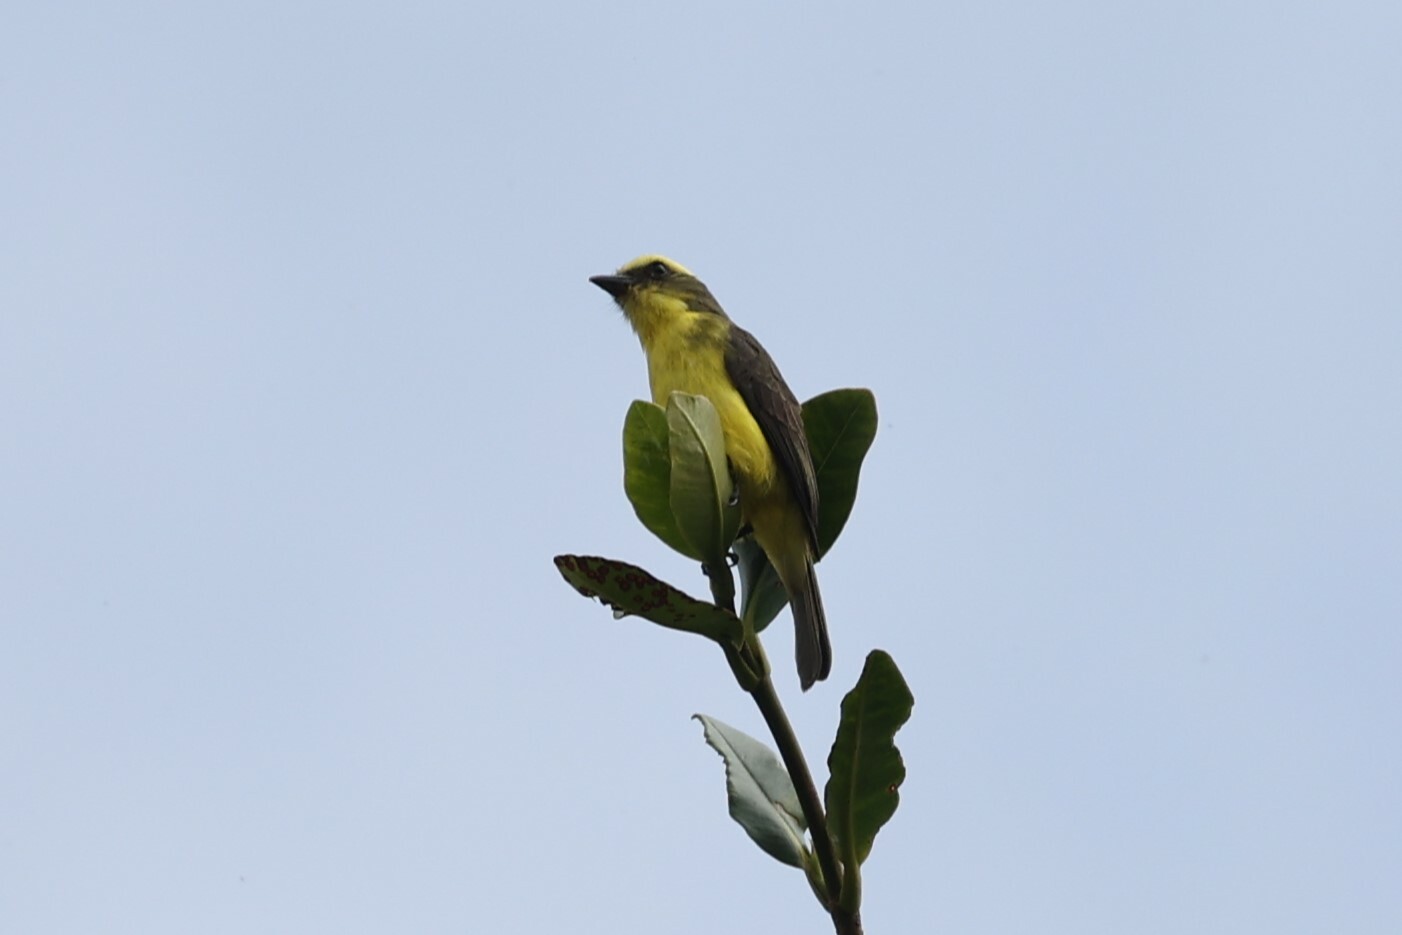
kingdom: Animalia
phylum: Chordata
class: Aves
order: Passeriformes
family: Tyrannidae
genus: Conopias
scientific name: Conopias cinchoneti
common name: Lemon-browed flycatcher
